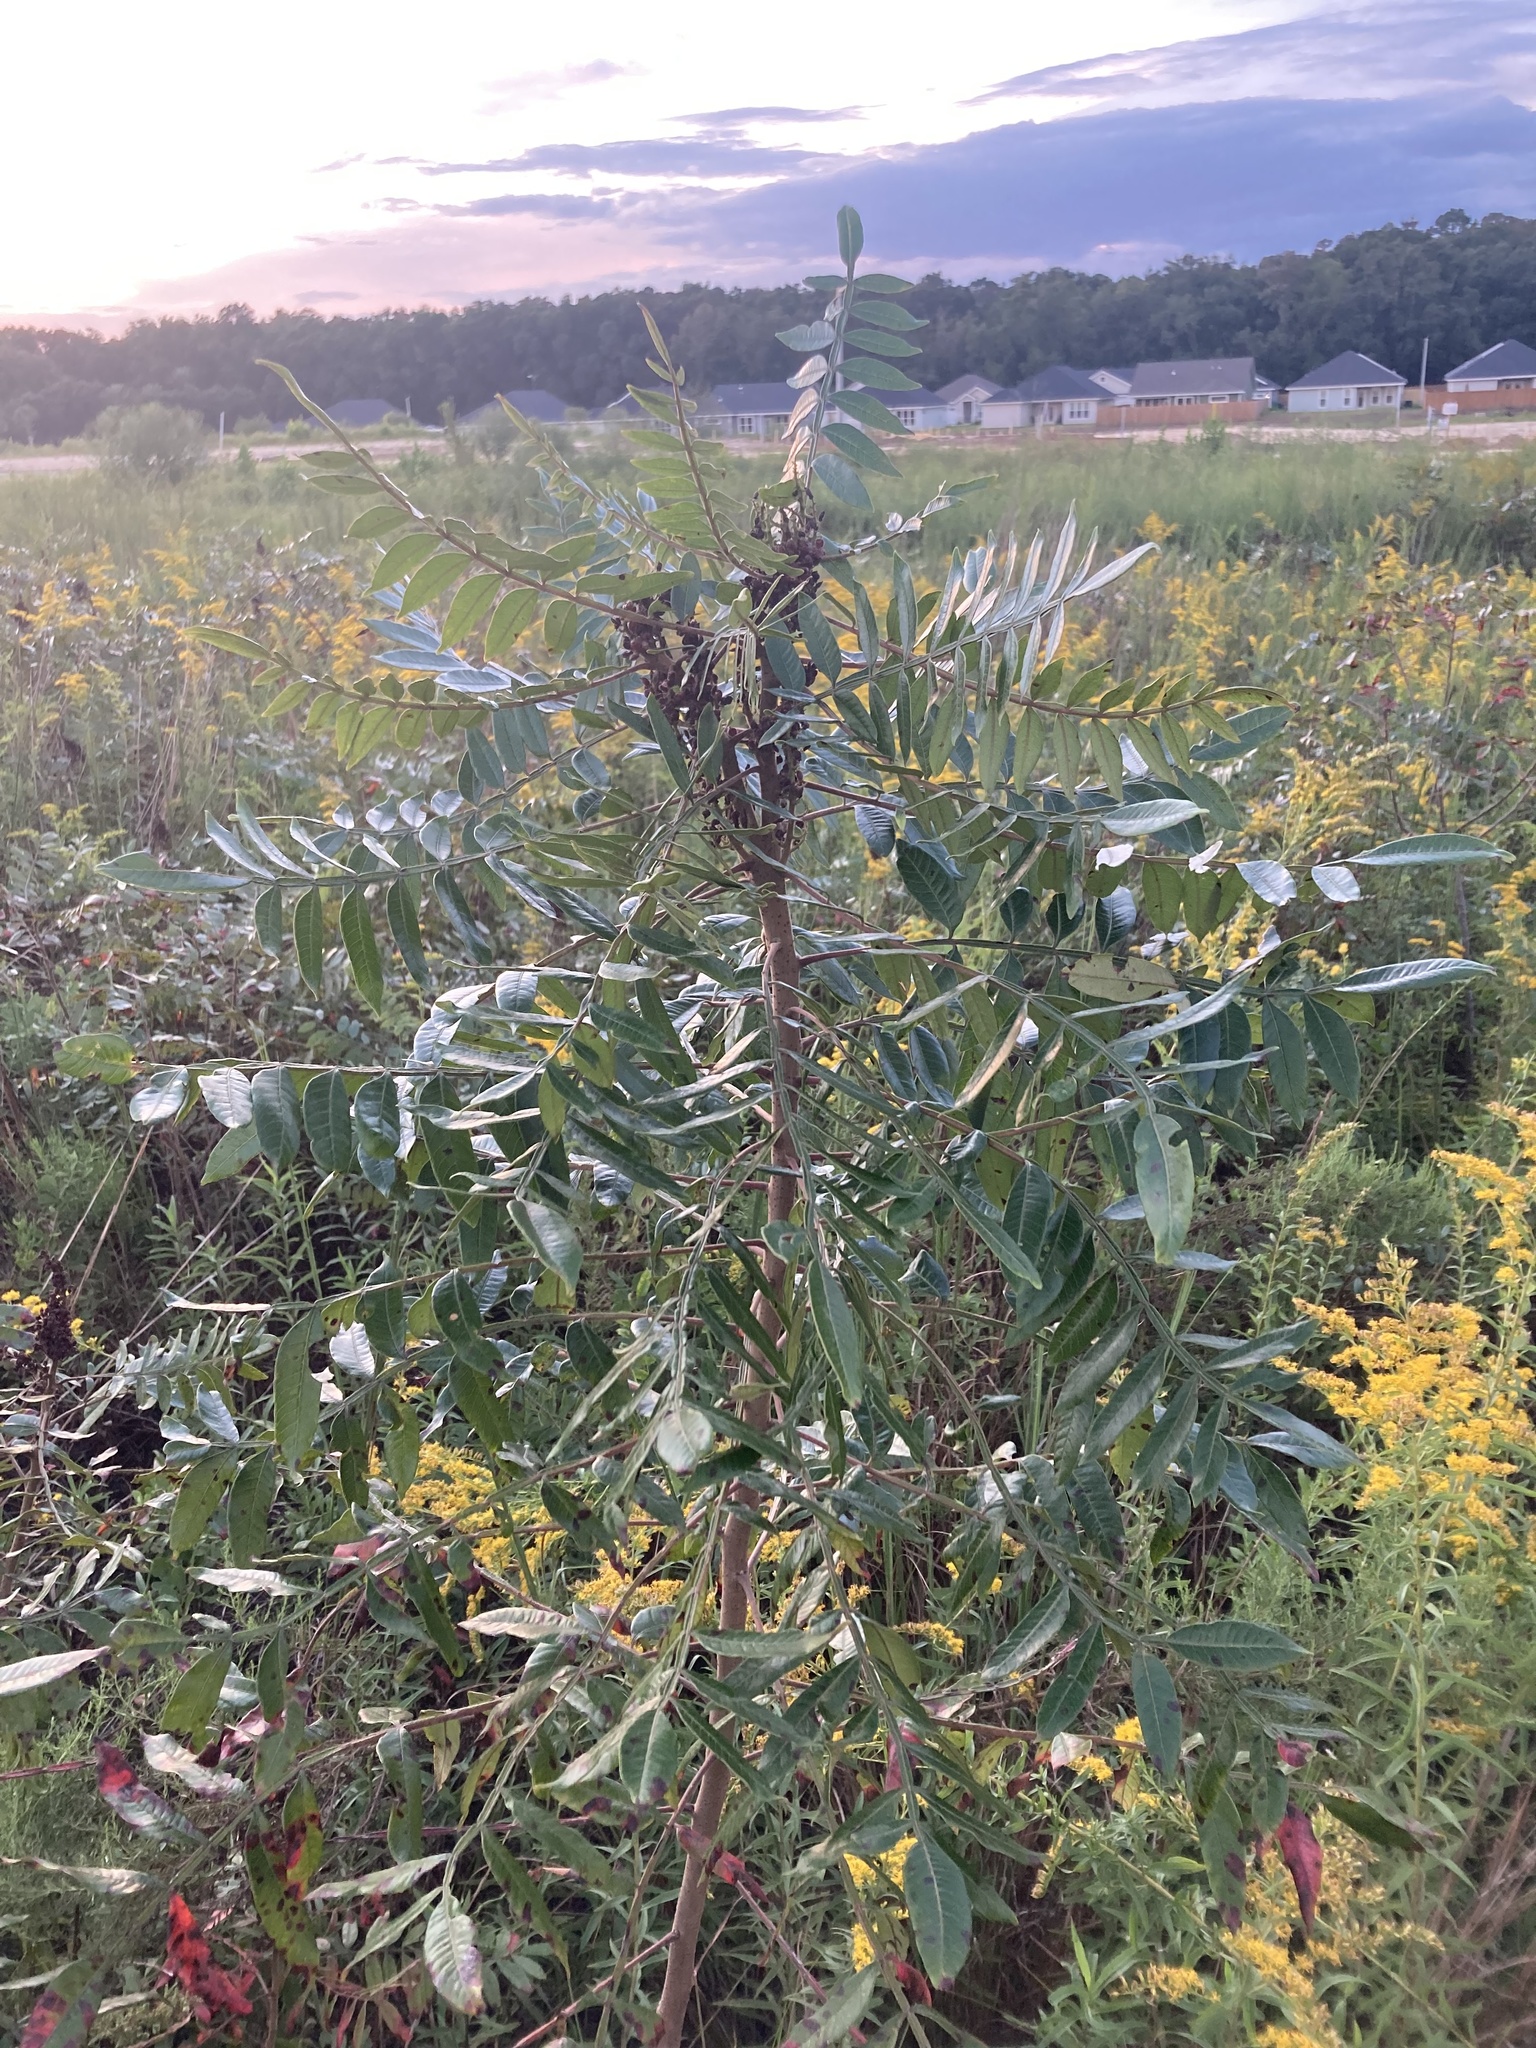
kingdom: Plantae
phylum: Tracheophyta
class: Magnoliopsida
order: Sapindales
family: Anacardiaceae
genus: Rhus
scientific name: Rhus copallina
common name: Shining sumac
